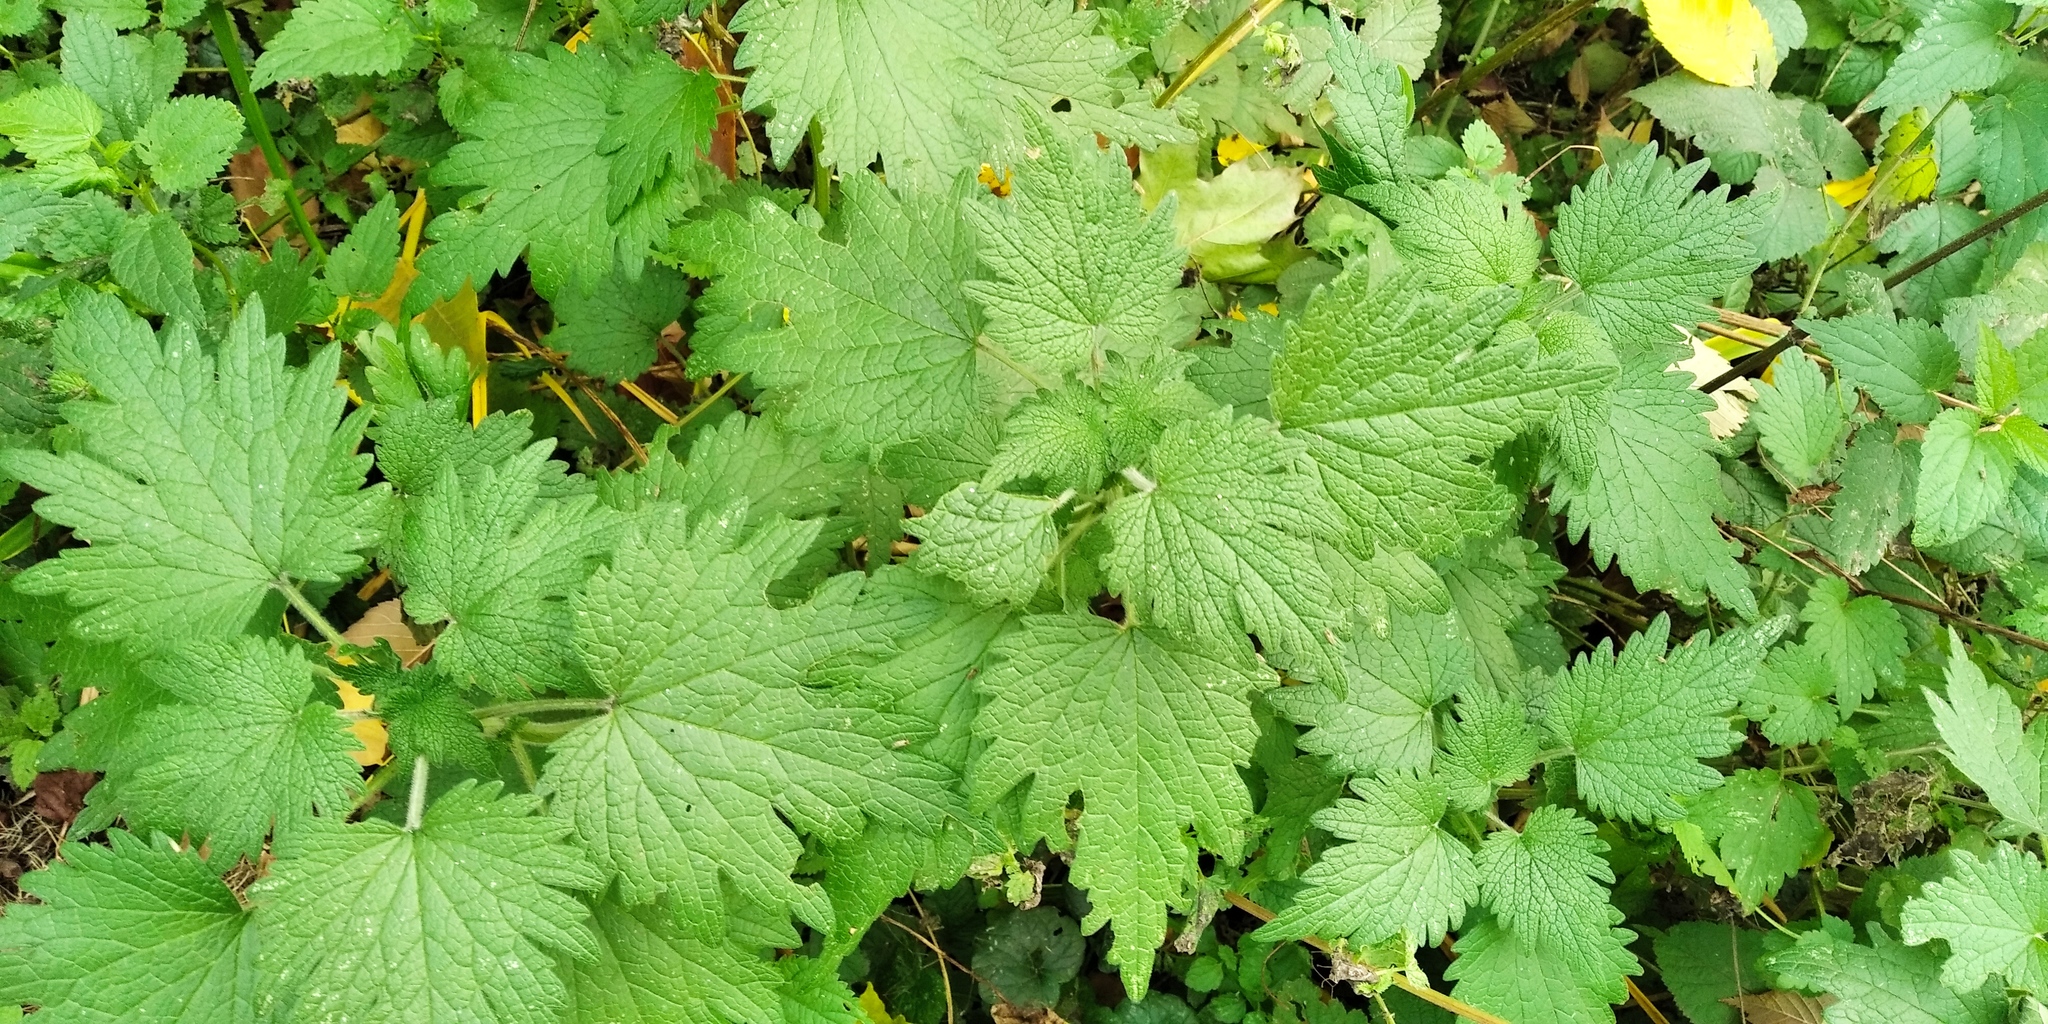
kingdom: Plantae
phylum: Tracheophyta
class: Magnoliopsida
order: Lamiales
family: Lamiaceae
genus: Leonurus
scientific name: Leonurus quinquelobatus
